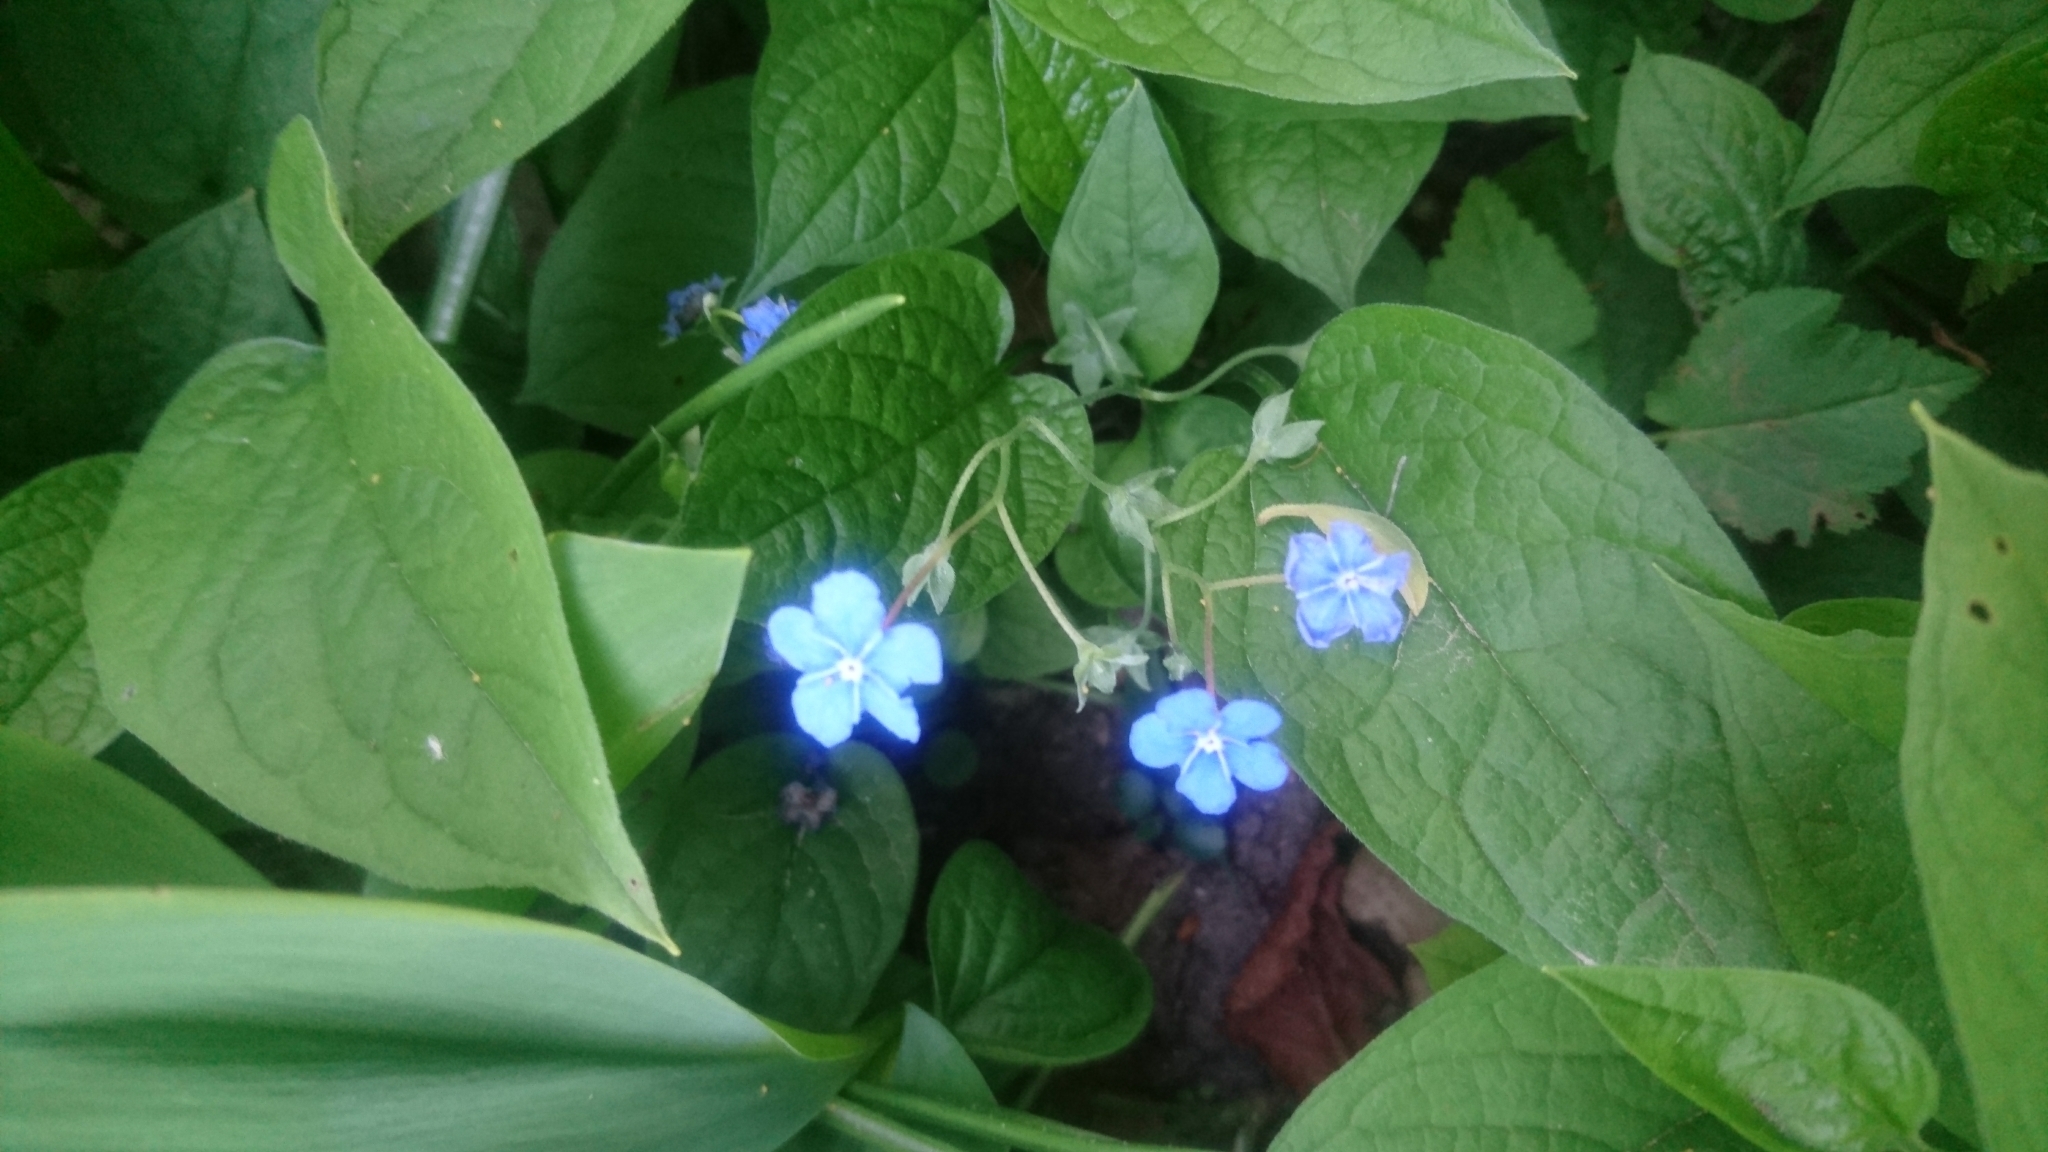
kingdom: Plantae
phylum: Tracheophyta
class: Magnoliopsida
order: Boraginales
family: Boraginaceae
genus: Omphalodes
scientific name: Omphalodes verna
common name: Blue-eyed-mary
